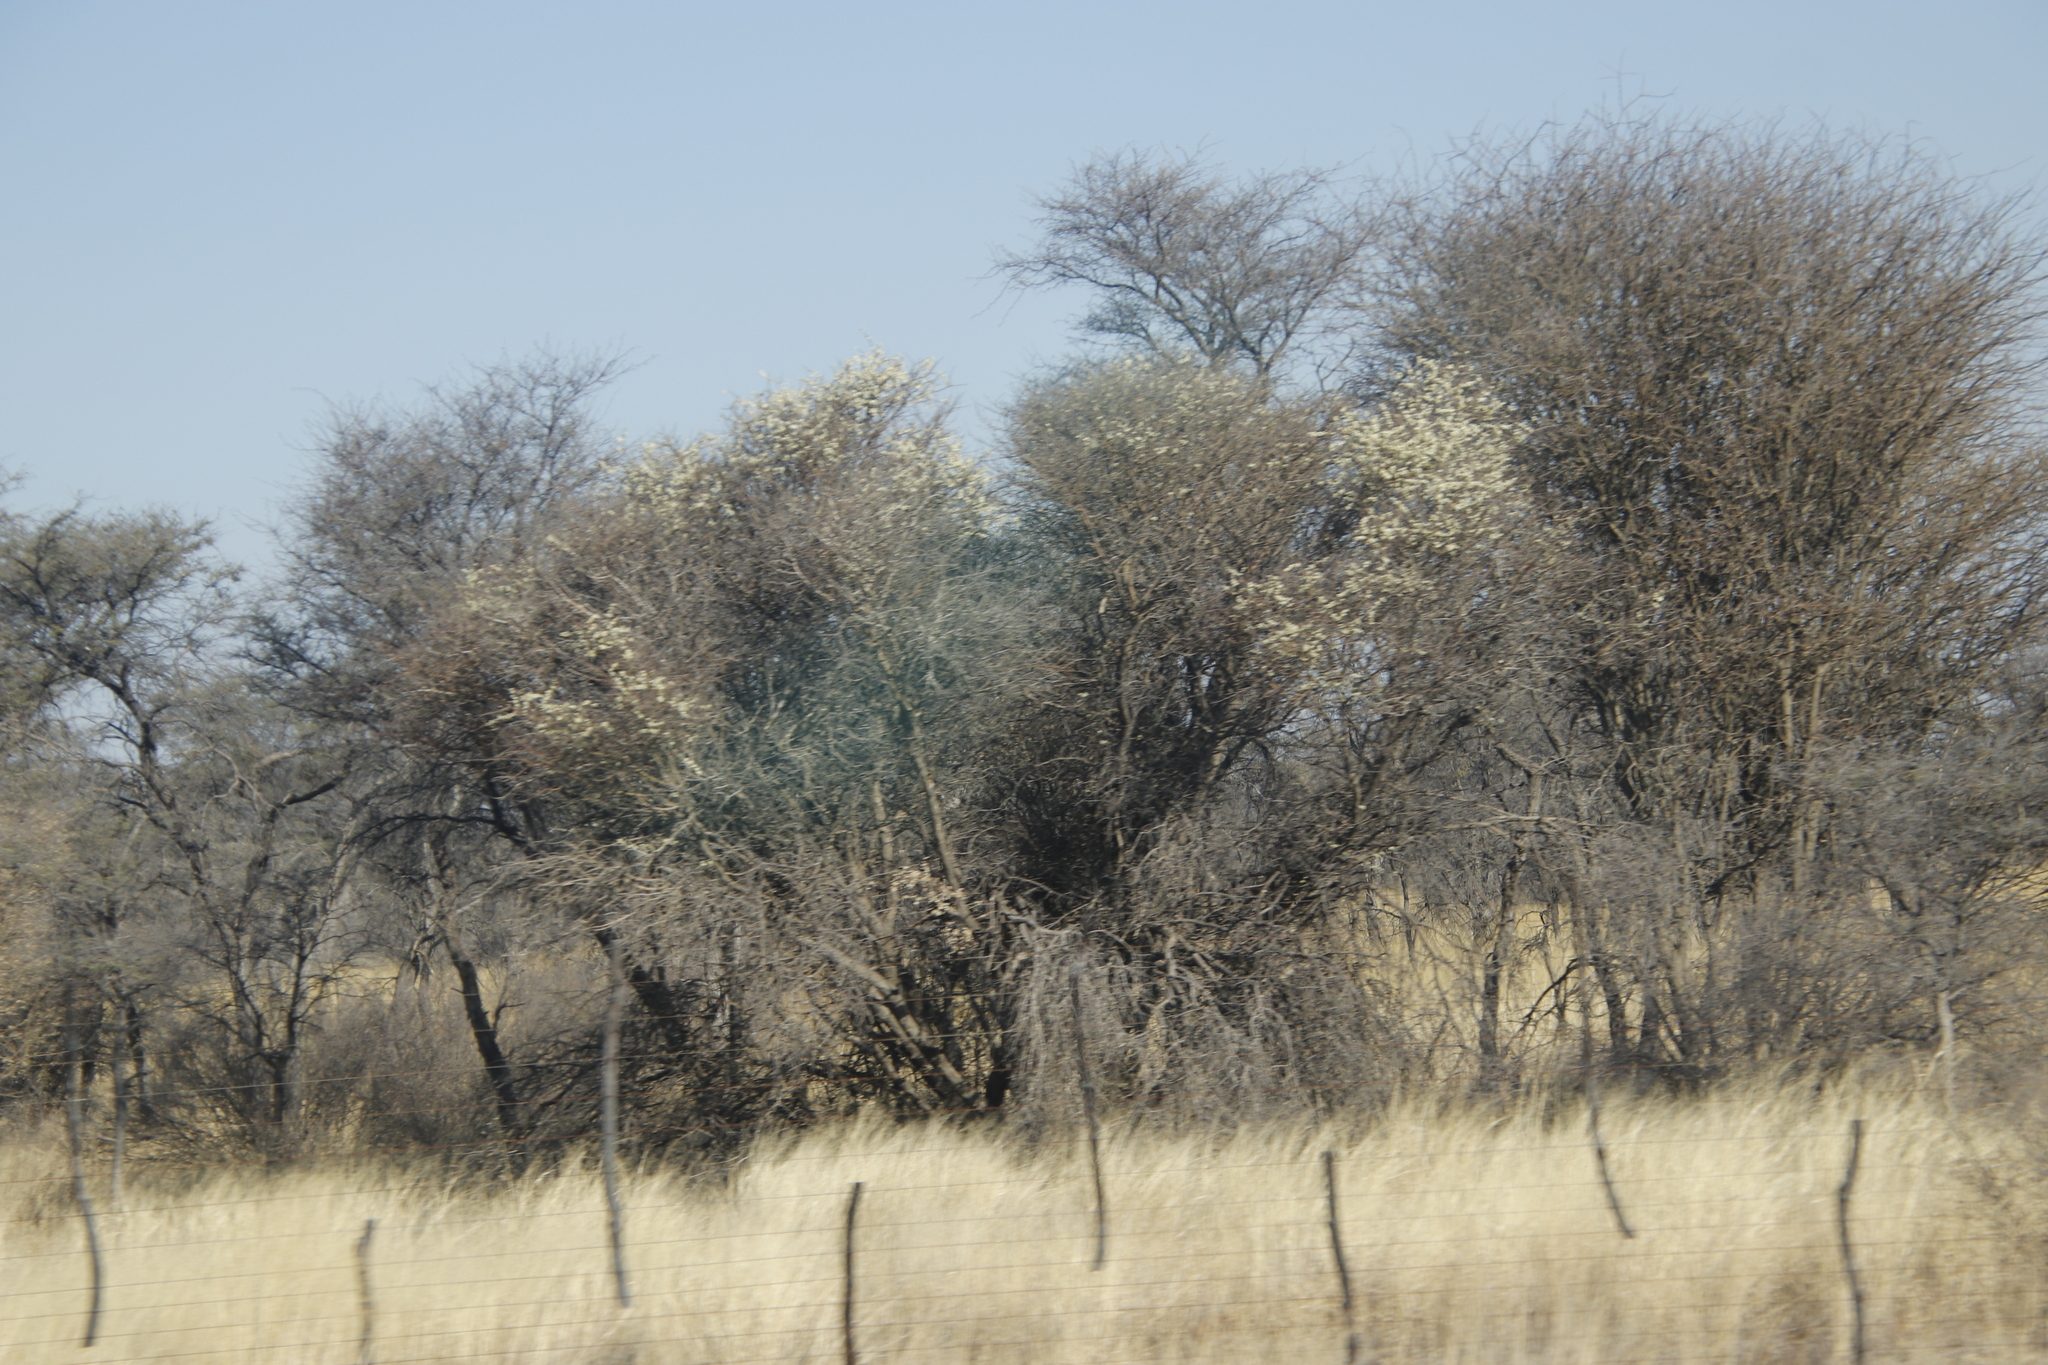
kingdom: Plantae
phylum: Tracheophyta
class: Magnoliopsida
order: Fabales
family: Fabaceae
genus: Senegalia
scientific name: Senegalia mellifera
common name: Hookthorn
